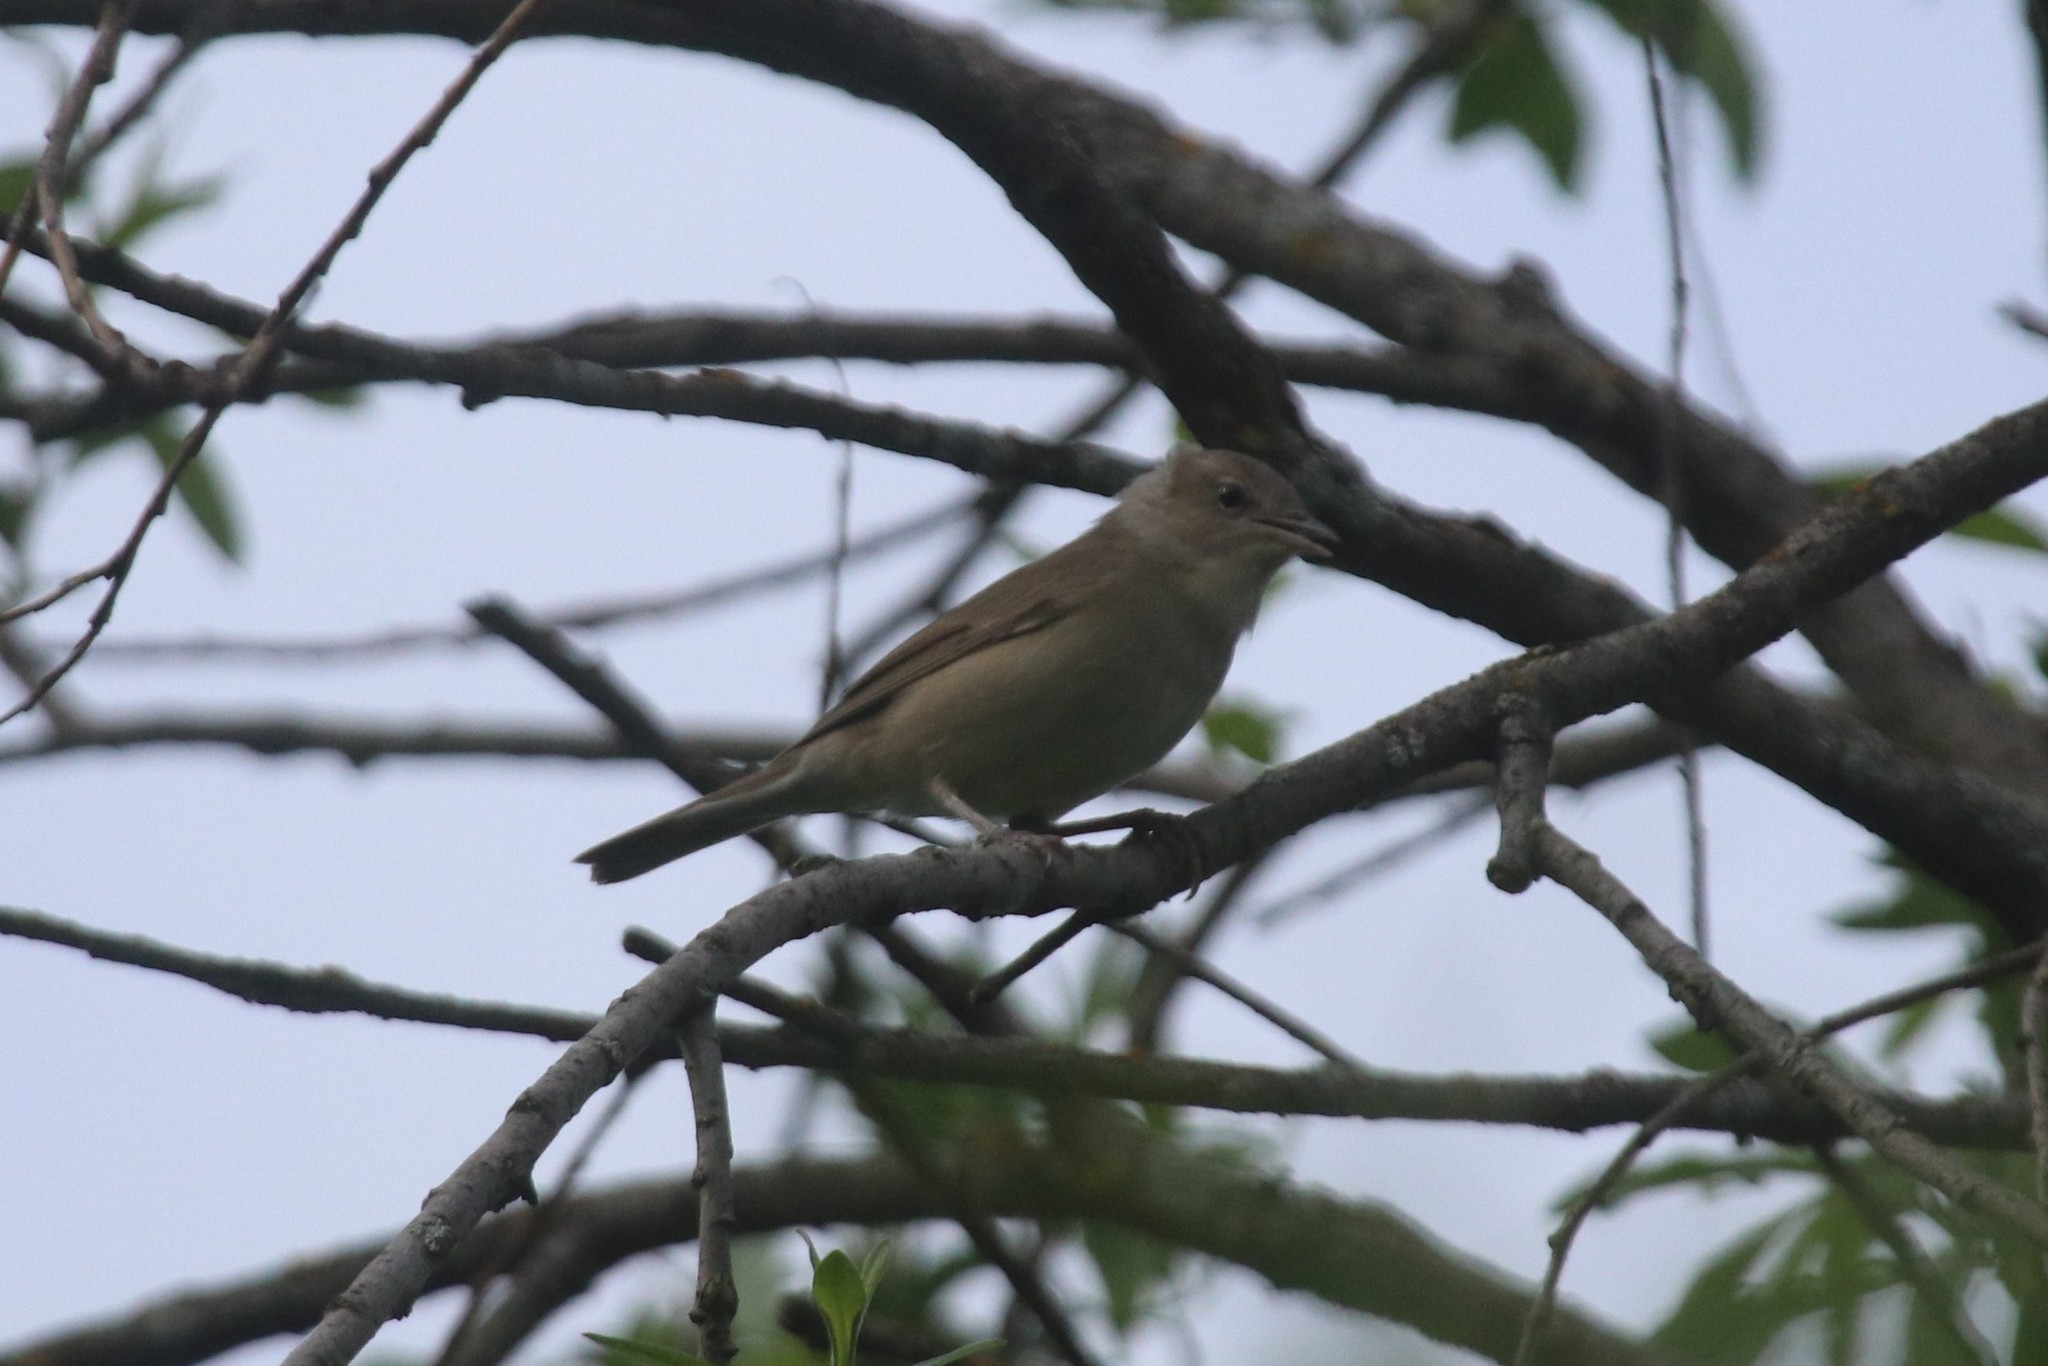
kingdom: Animalia
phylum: Chordata
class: Aves
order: Passeriformes
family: Sylviidae
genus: Sylvia
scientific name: Sylvia borin
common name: Garden warbler
